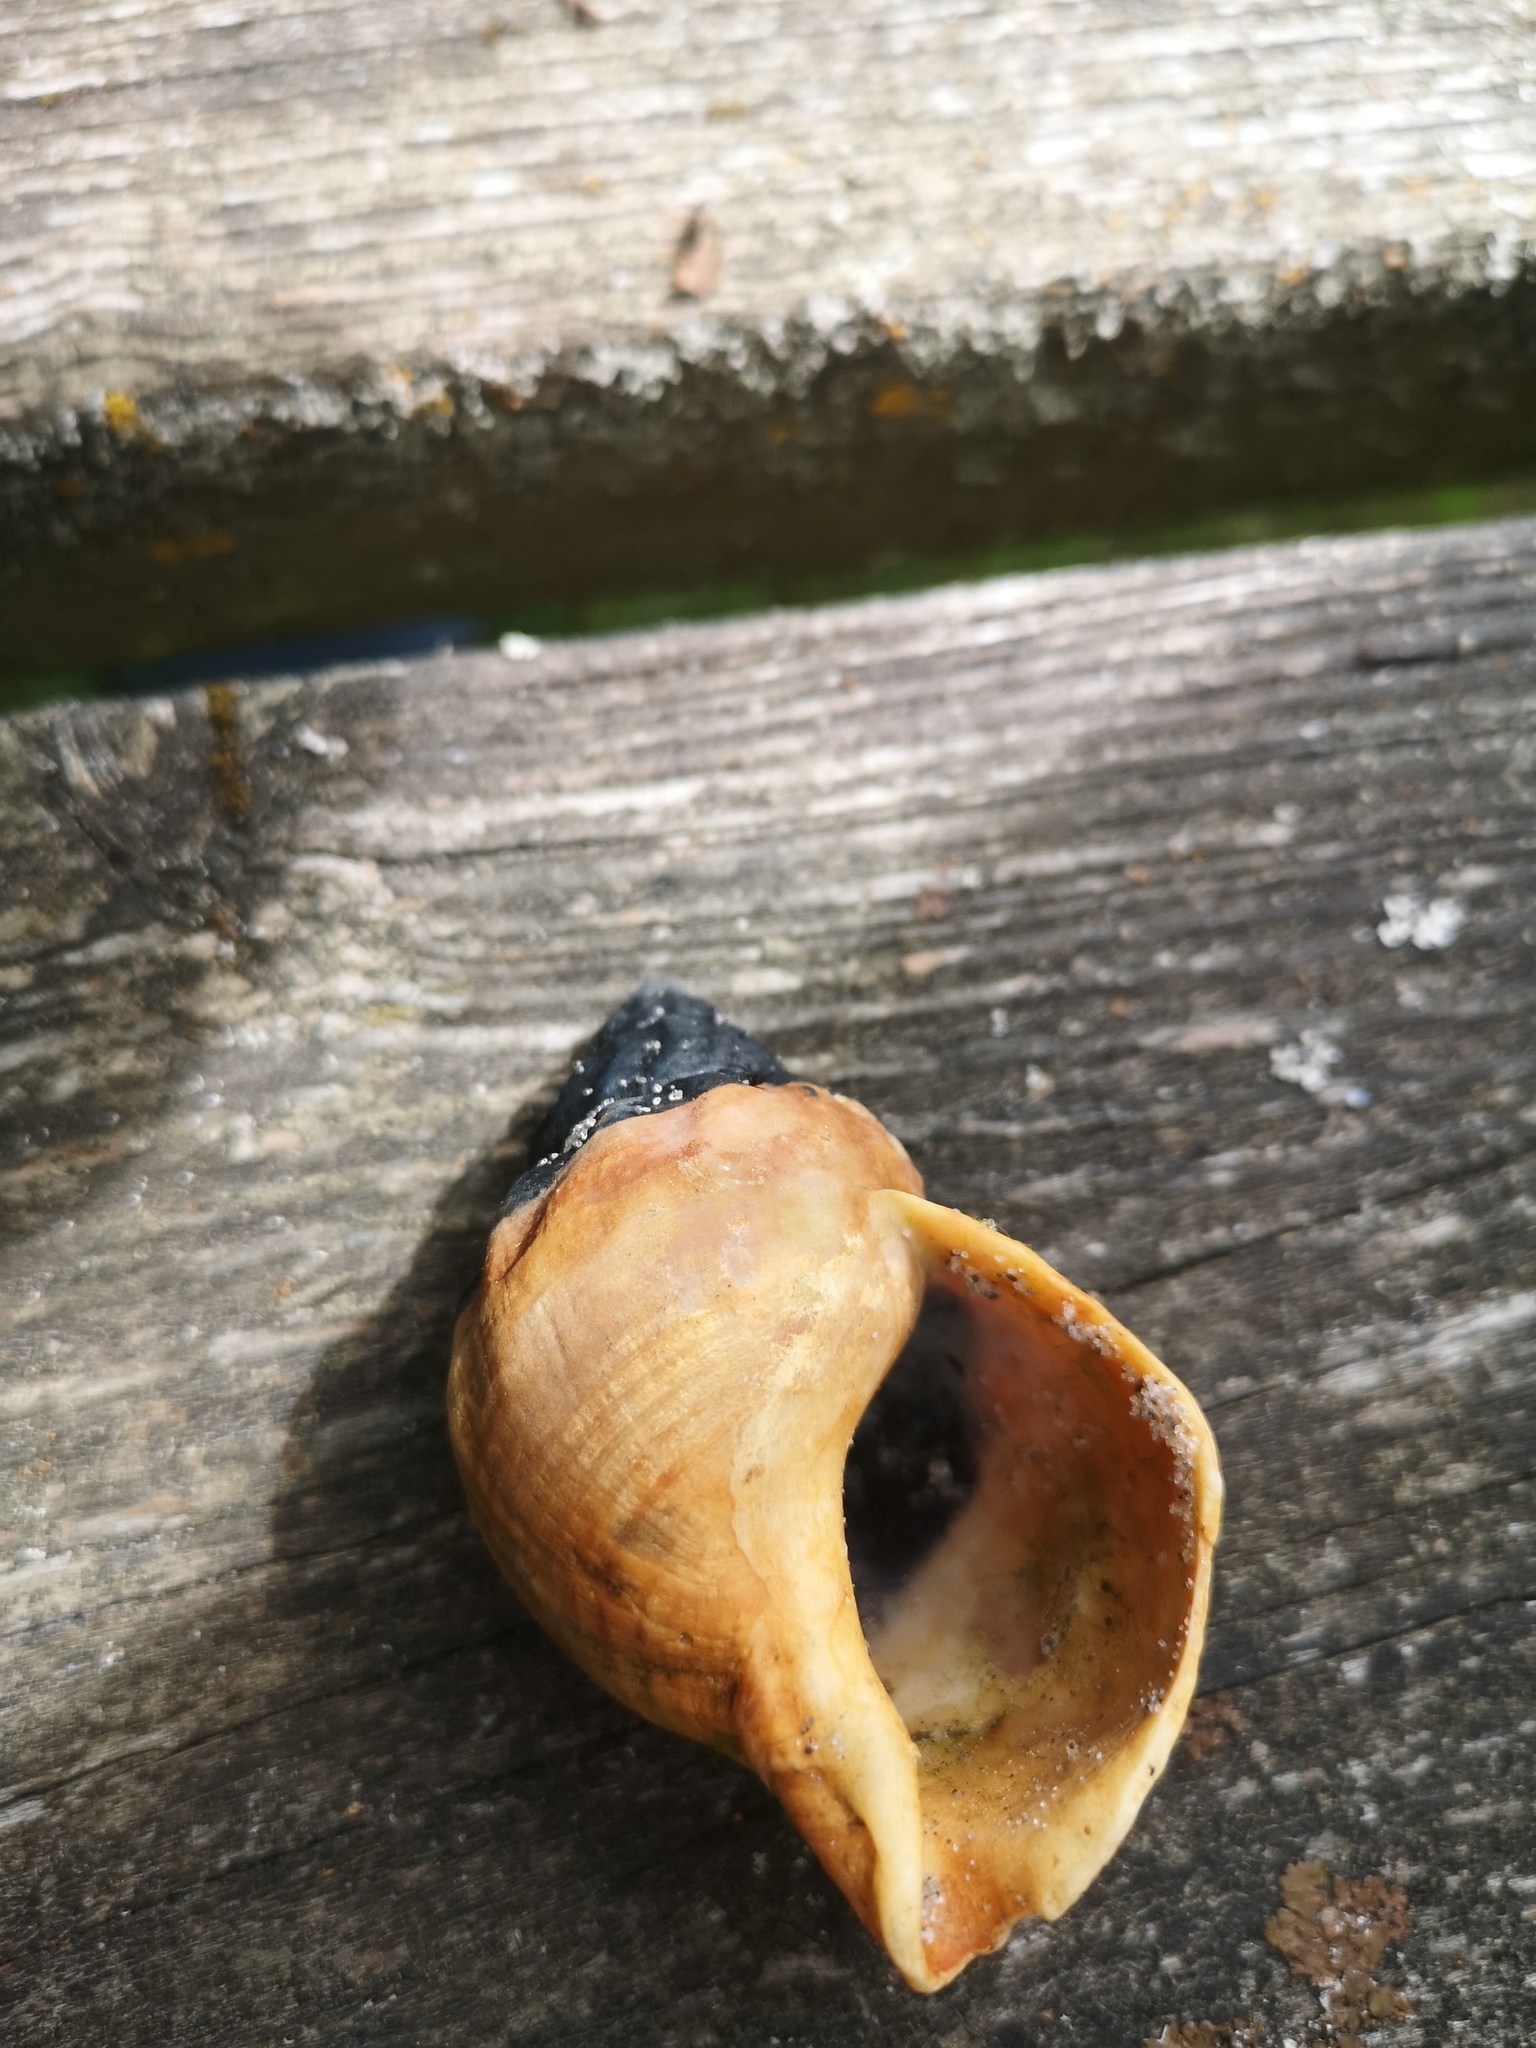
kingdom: Animalia
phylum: Mollusca
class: Gastropoda
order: Neogastropoda
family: Buccinidae
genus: Buccinum
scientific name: Buccinum undatum
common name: Common whelk
